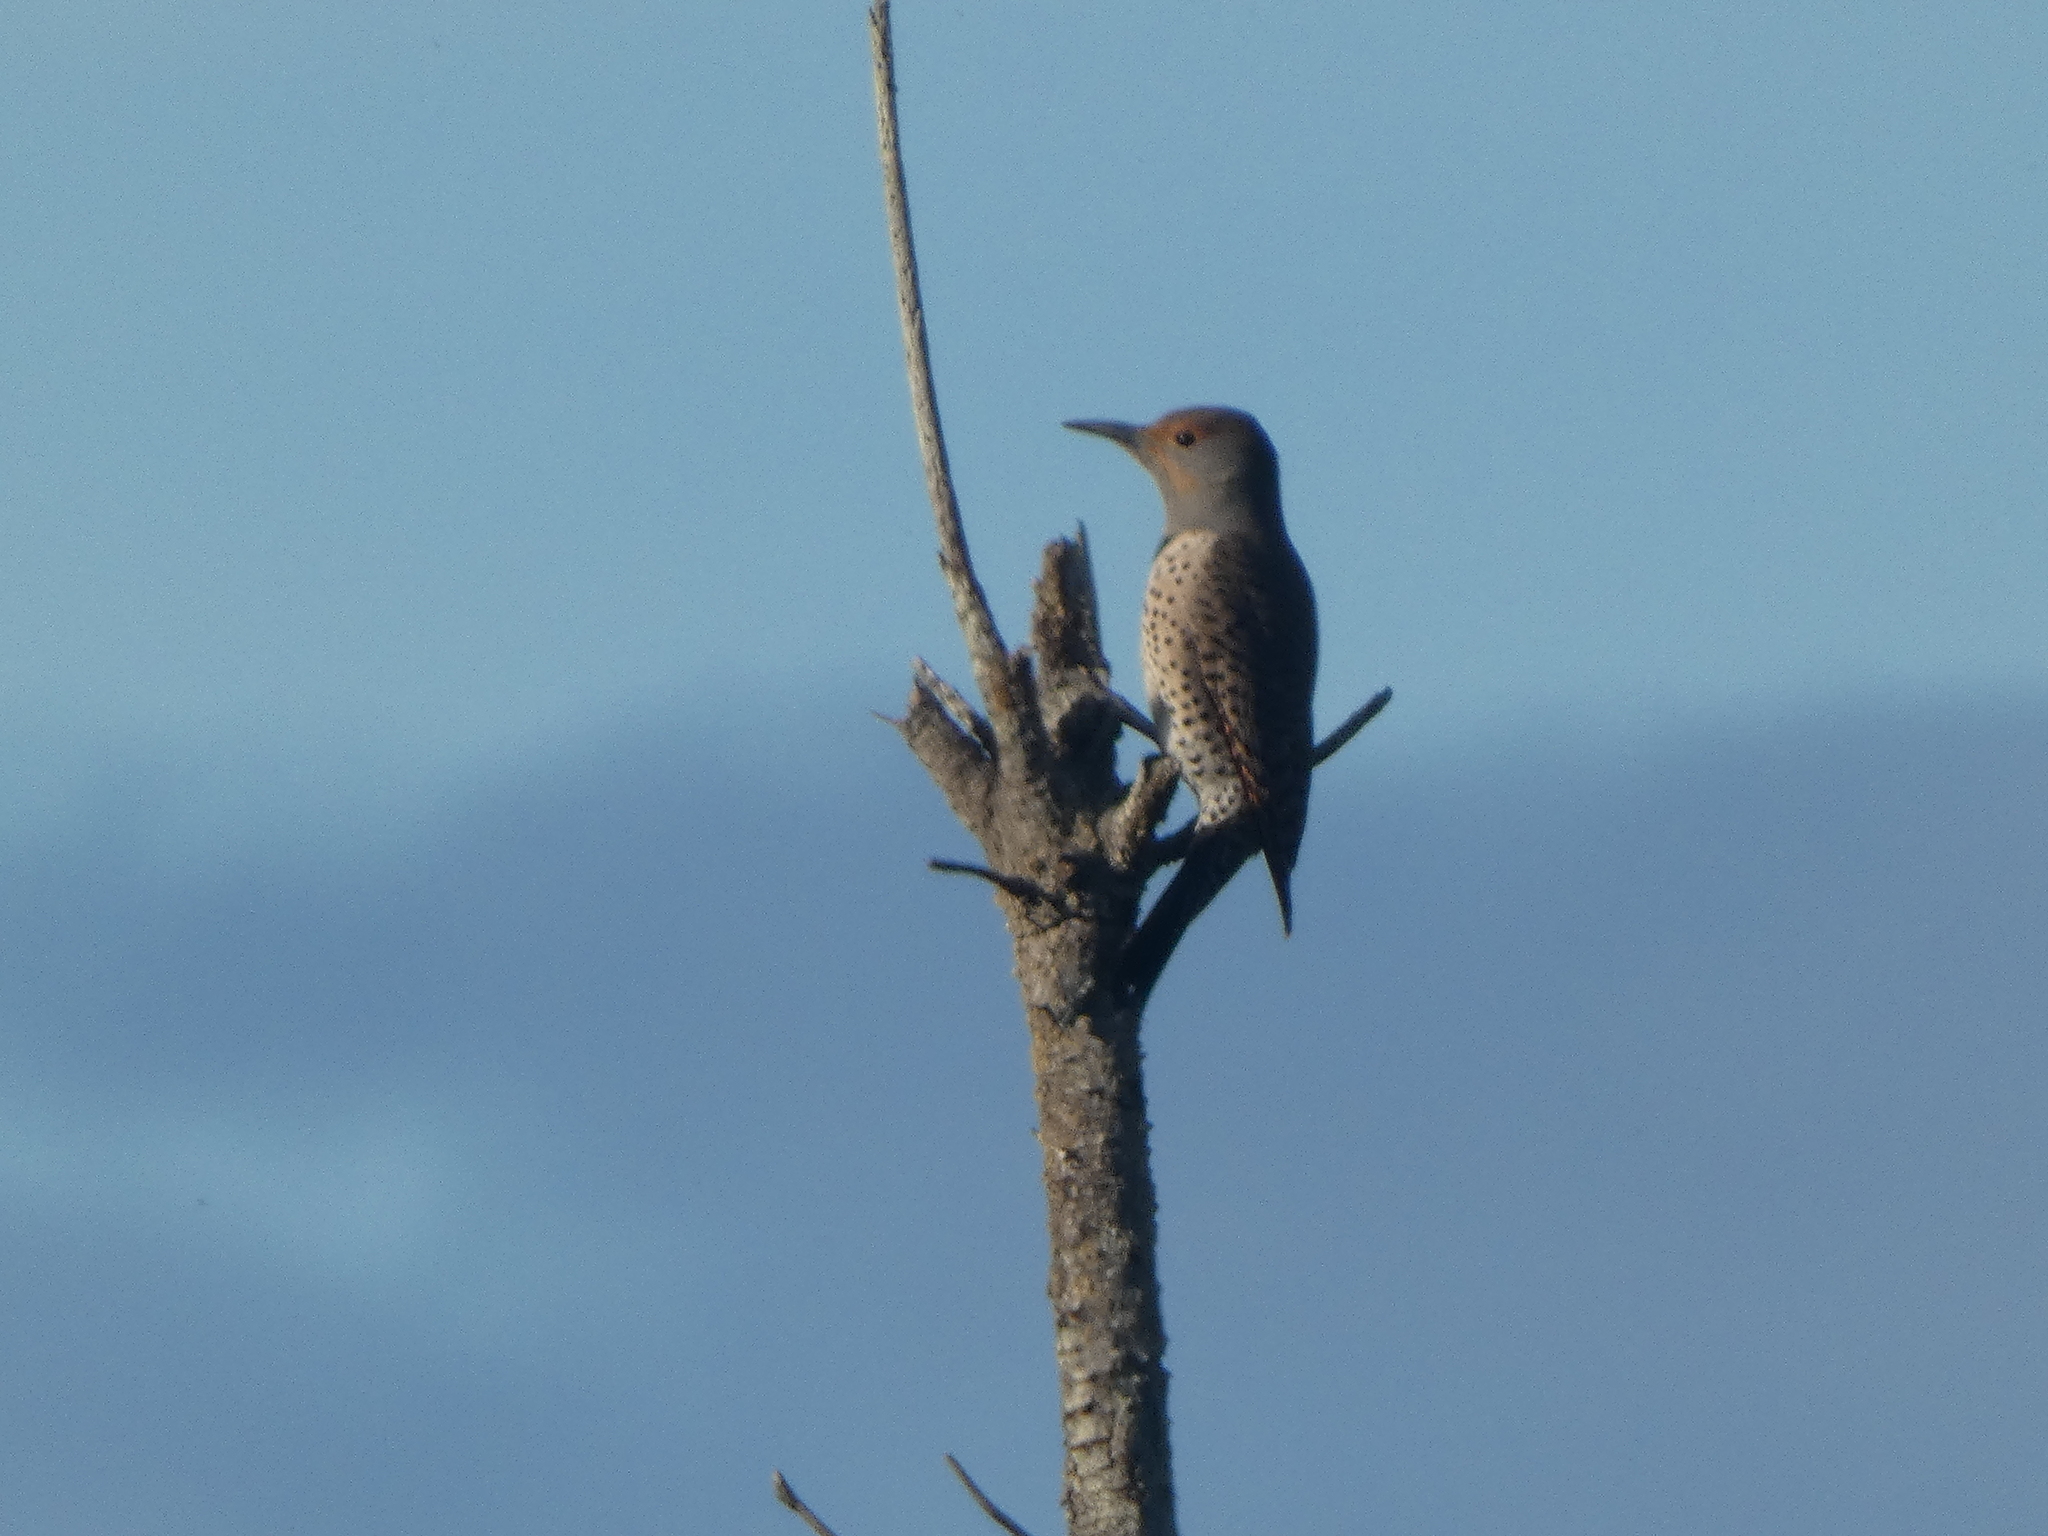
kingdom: Animalia
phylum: Chordata
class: Aves
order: Piciformes
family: Picidae
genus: Colaptes
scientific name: Colaptes auratus
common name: Northern flicker
